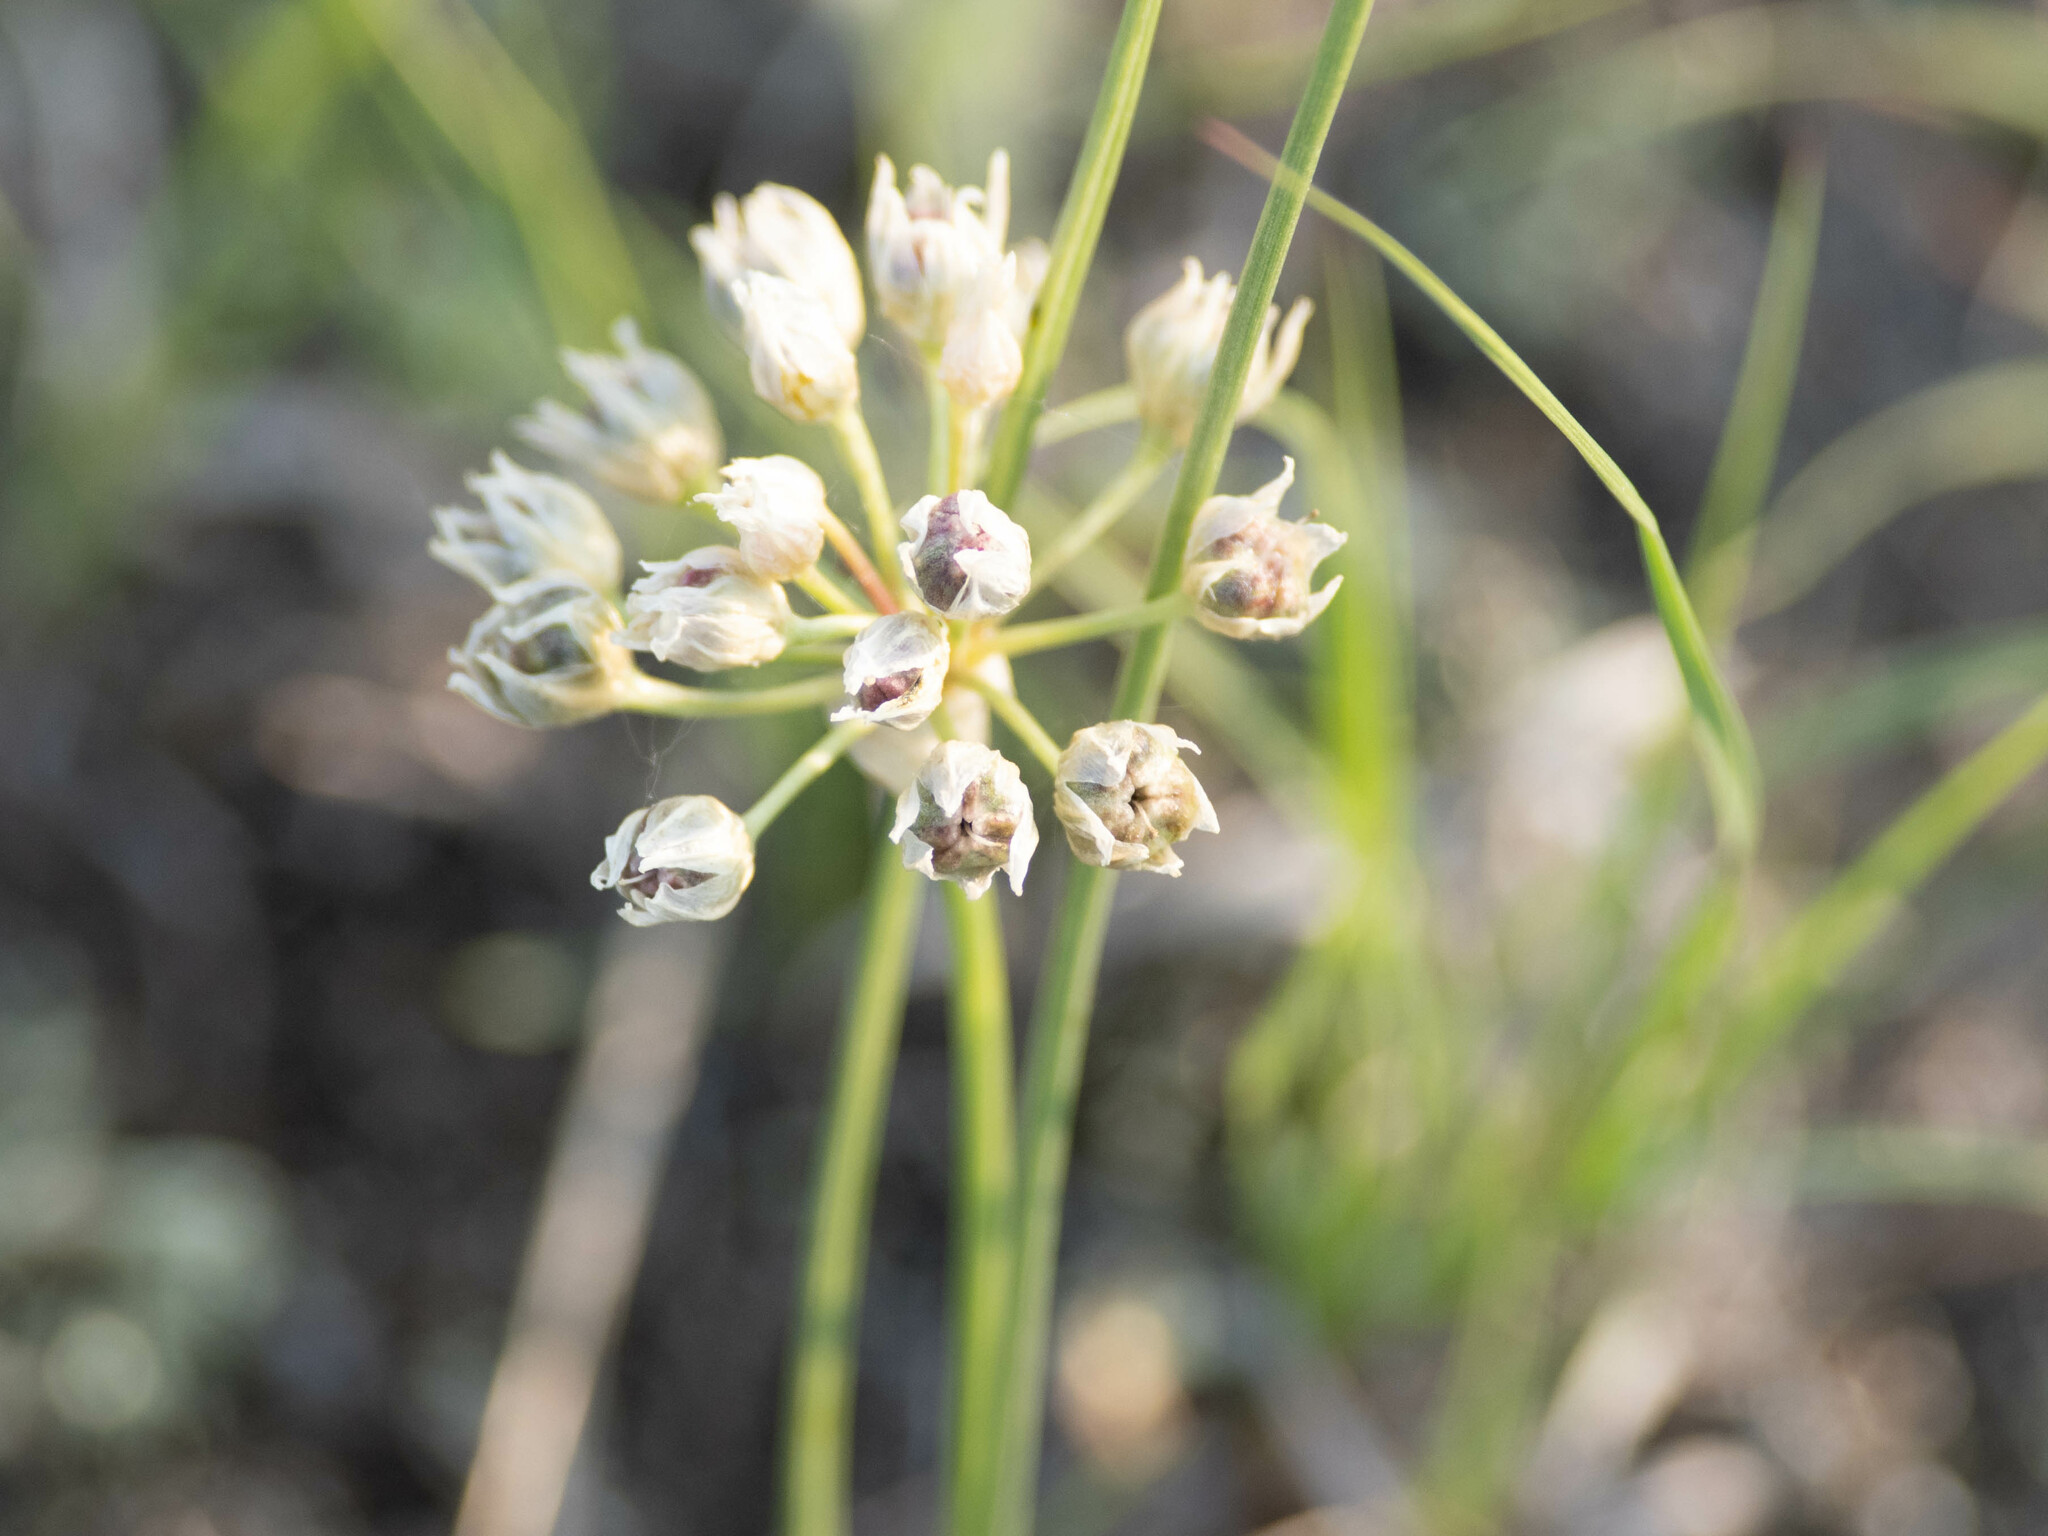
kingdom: Plantae
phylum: Tracheophyta
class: Liliopsida
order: Asparagales
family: Amaryllidaceae
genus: Allium
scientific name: Allium textile
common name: Prairie onion
